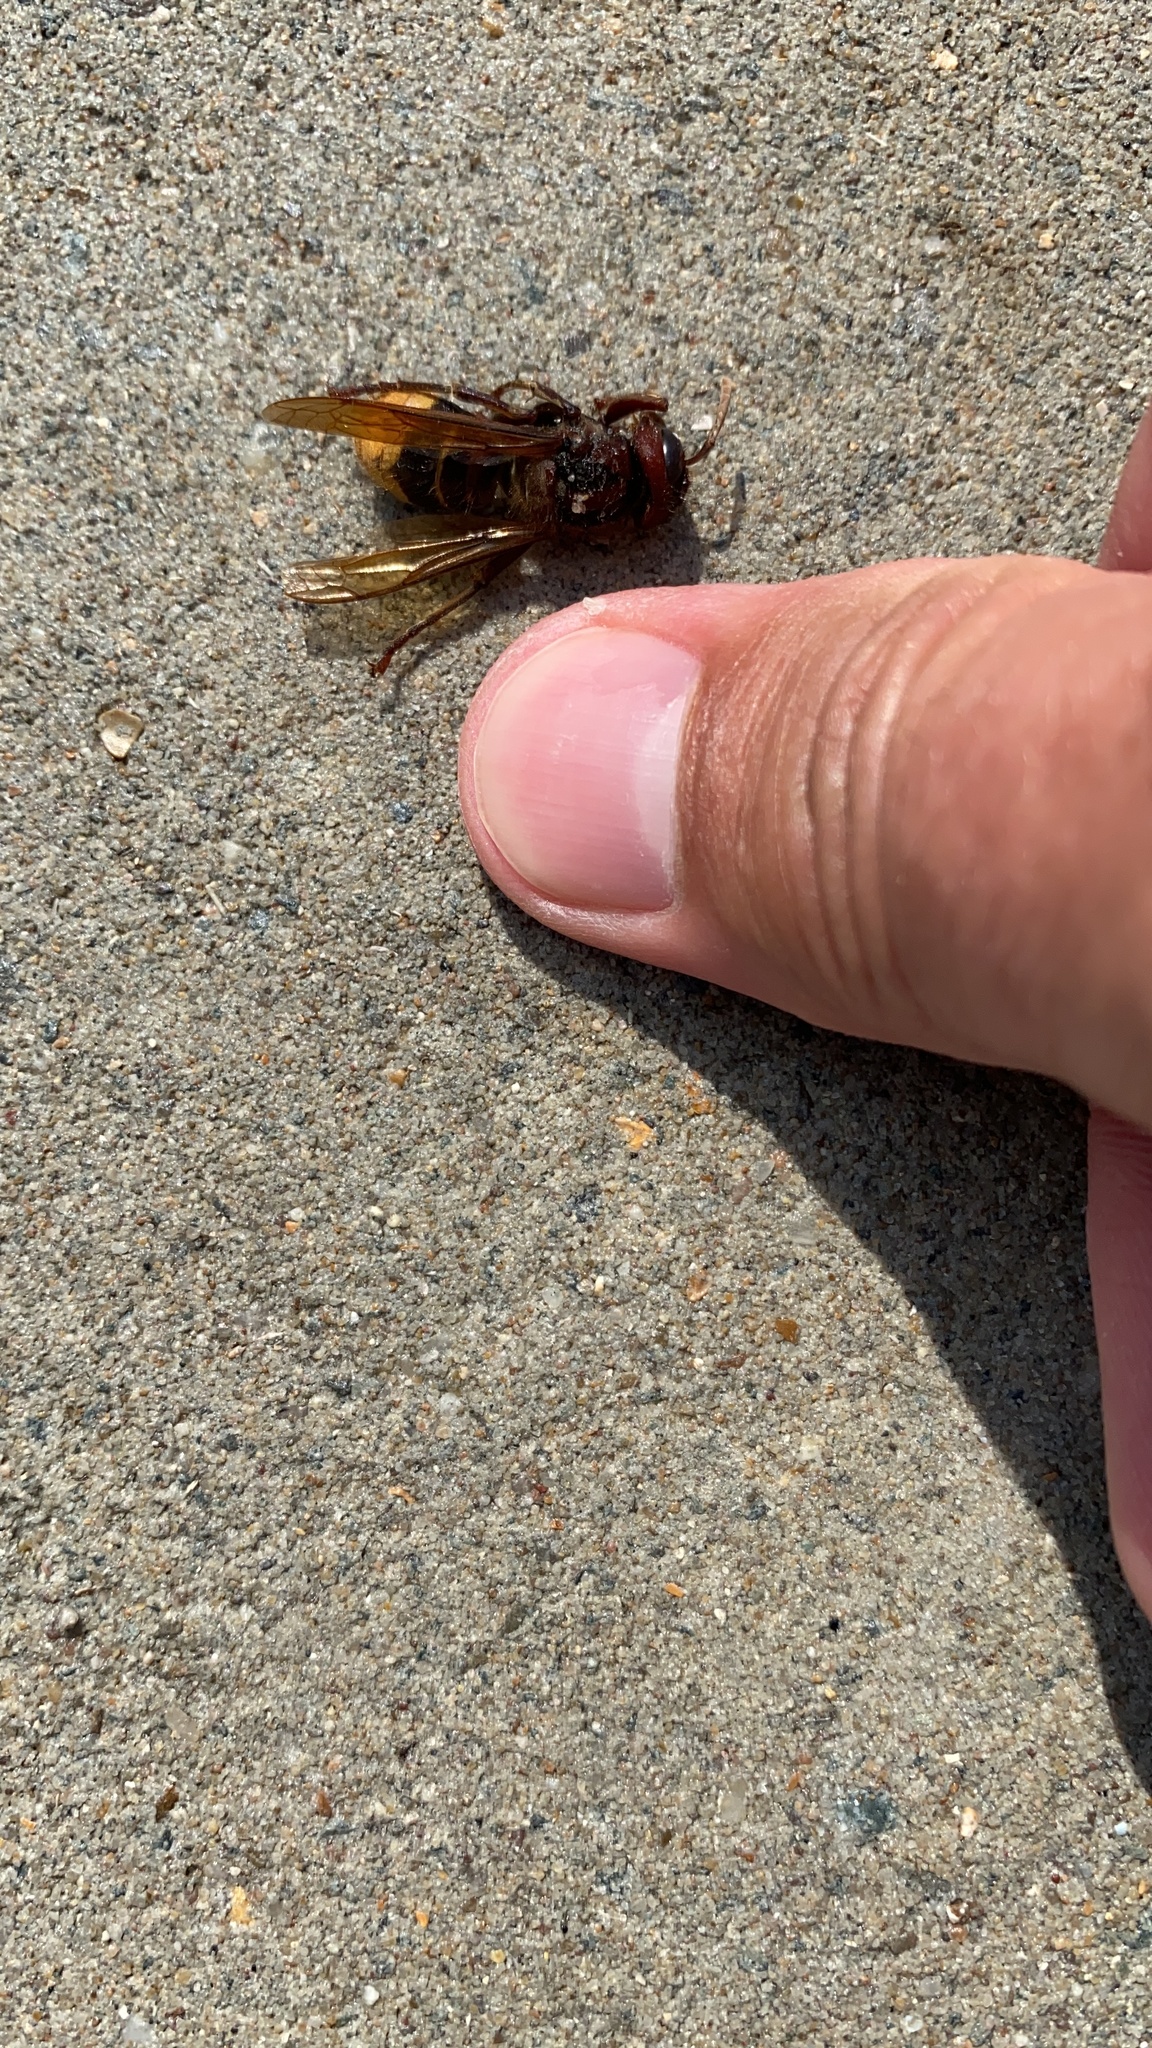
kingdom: Animalia
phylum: Arthropoda
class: Insecta
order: Hymenoptera
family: Vespidae
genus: Vespa
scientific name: Vespa crabro
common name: Hornet
